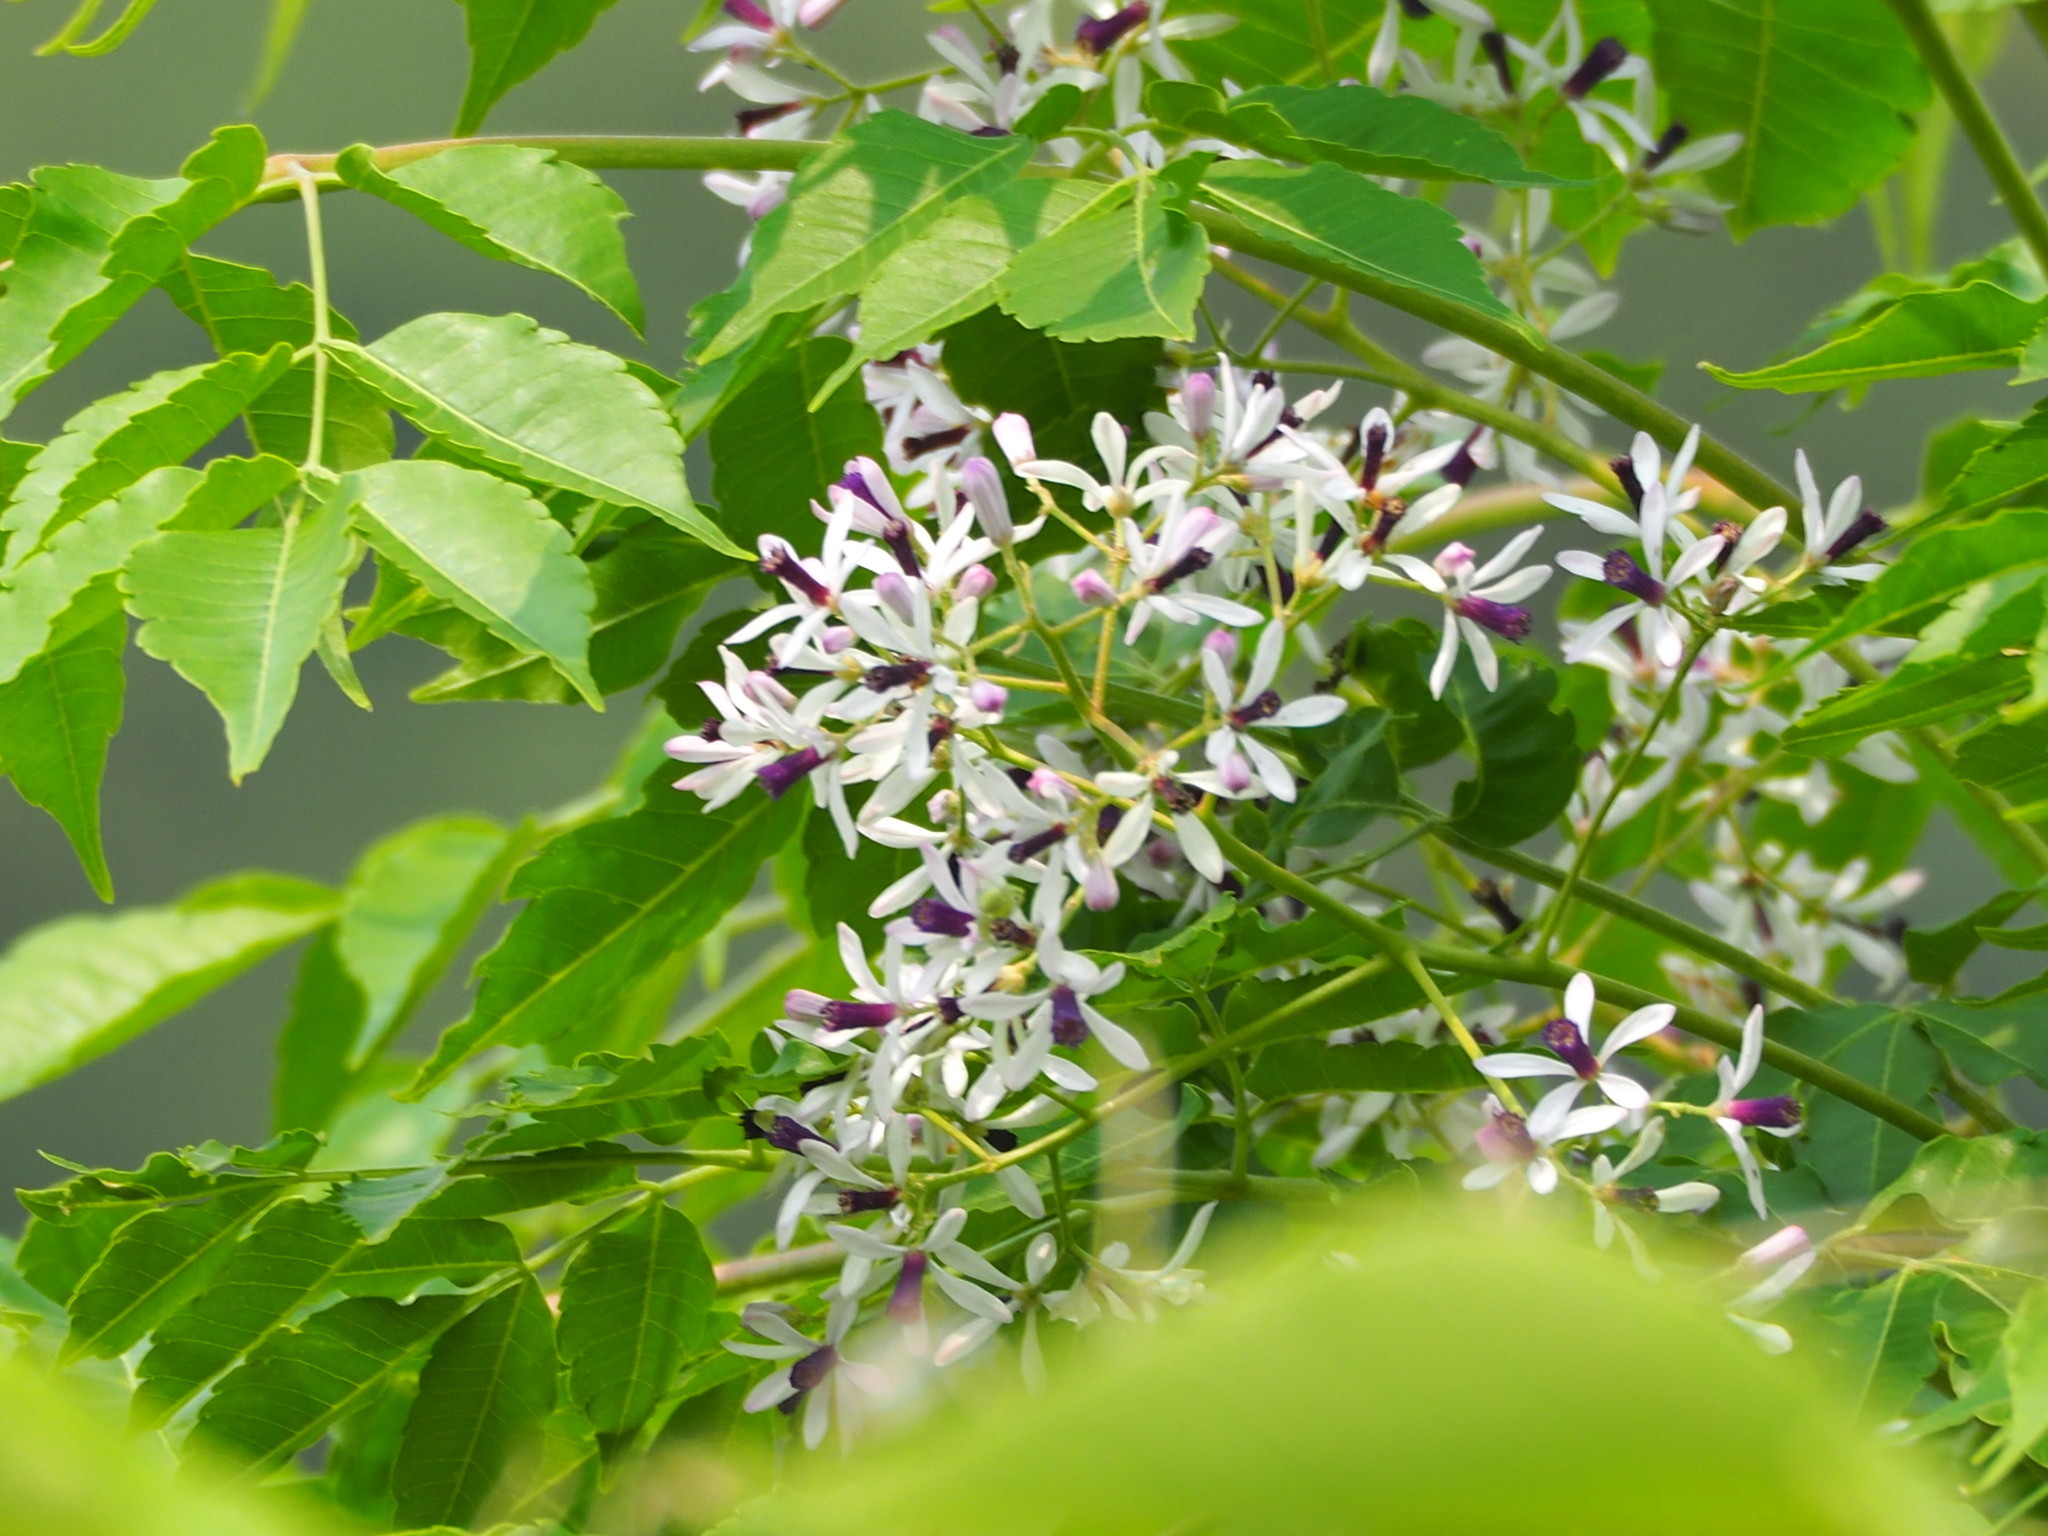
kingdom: Plantae
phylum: Tracheophyta
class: Magnoliopsida
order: Sapindales
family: Meliaceae
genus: Melia
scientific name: Melia azedarach
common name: Chinaberrytree
